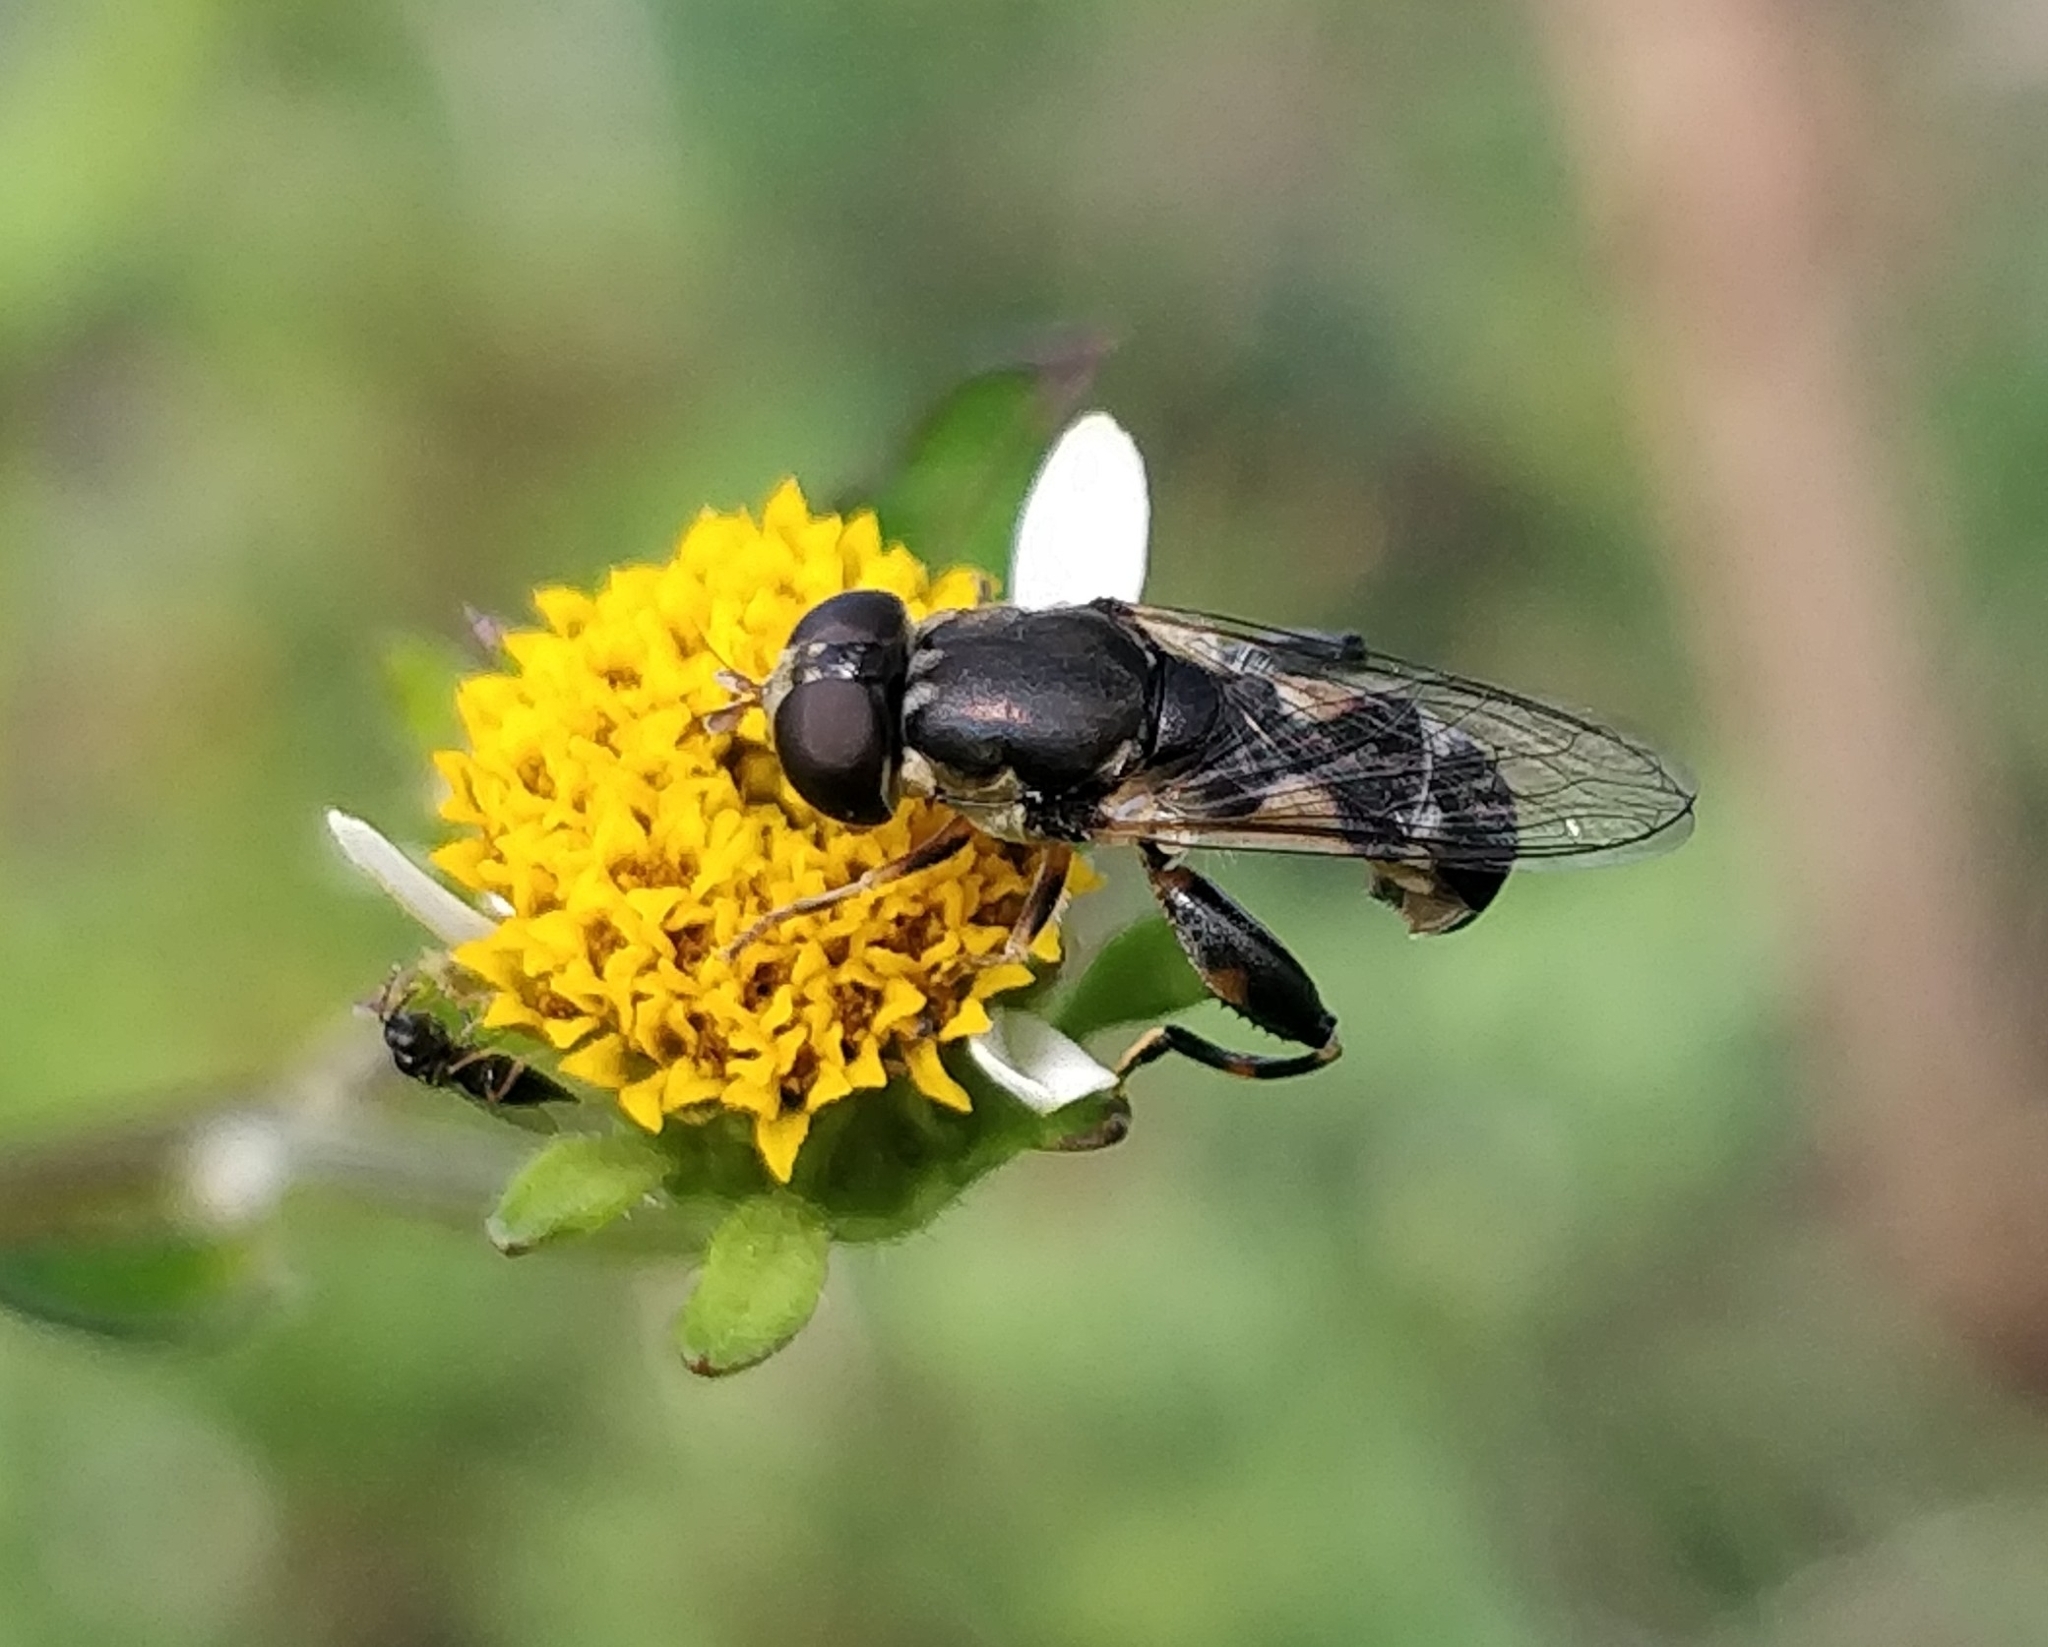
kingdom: Animalia
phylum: Arthropoda
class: Insecta
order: Diptera
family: Syrphidae
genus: Syritta
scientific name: Syritta pipiens
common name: Hover fly
